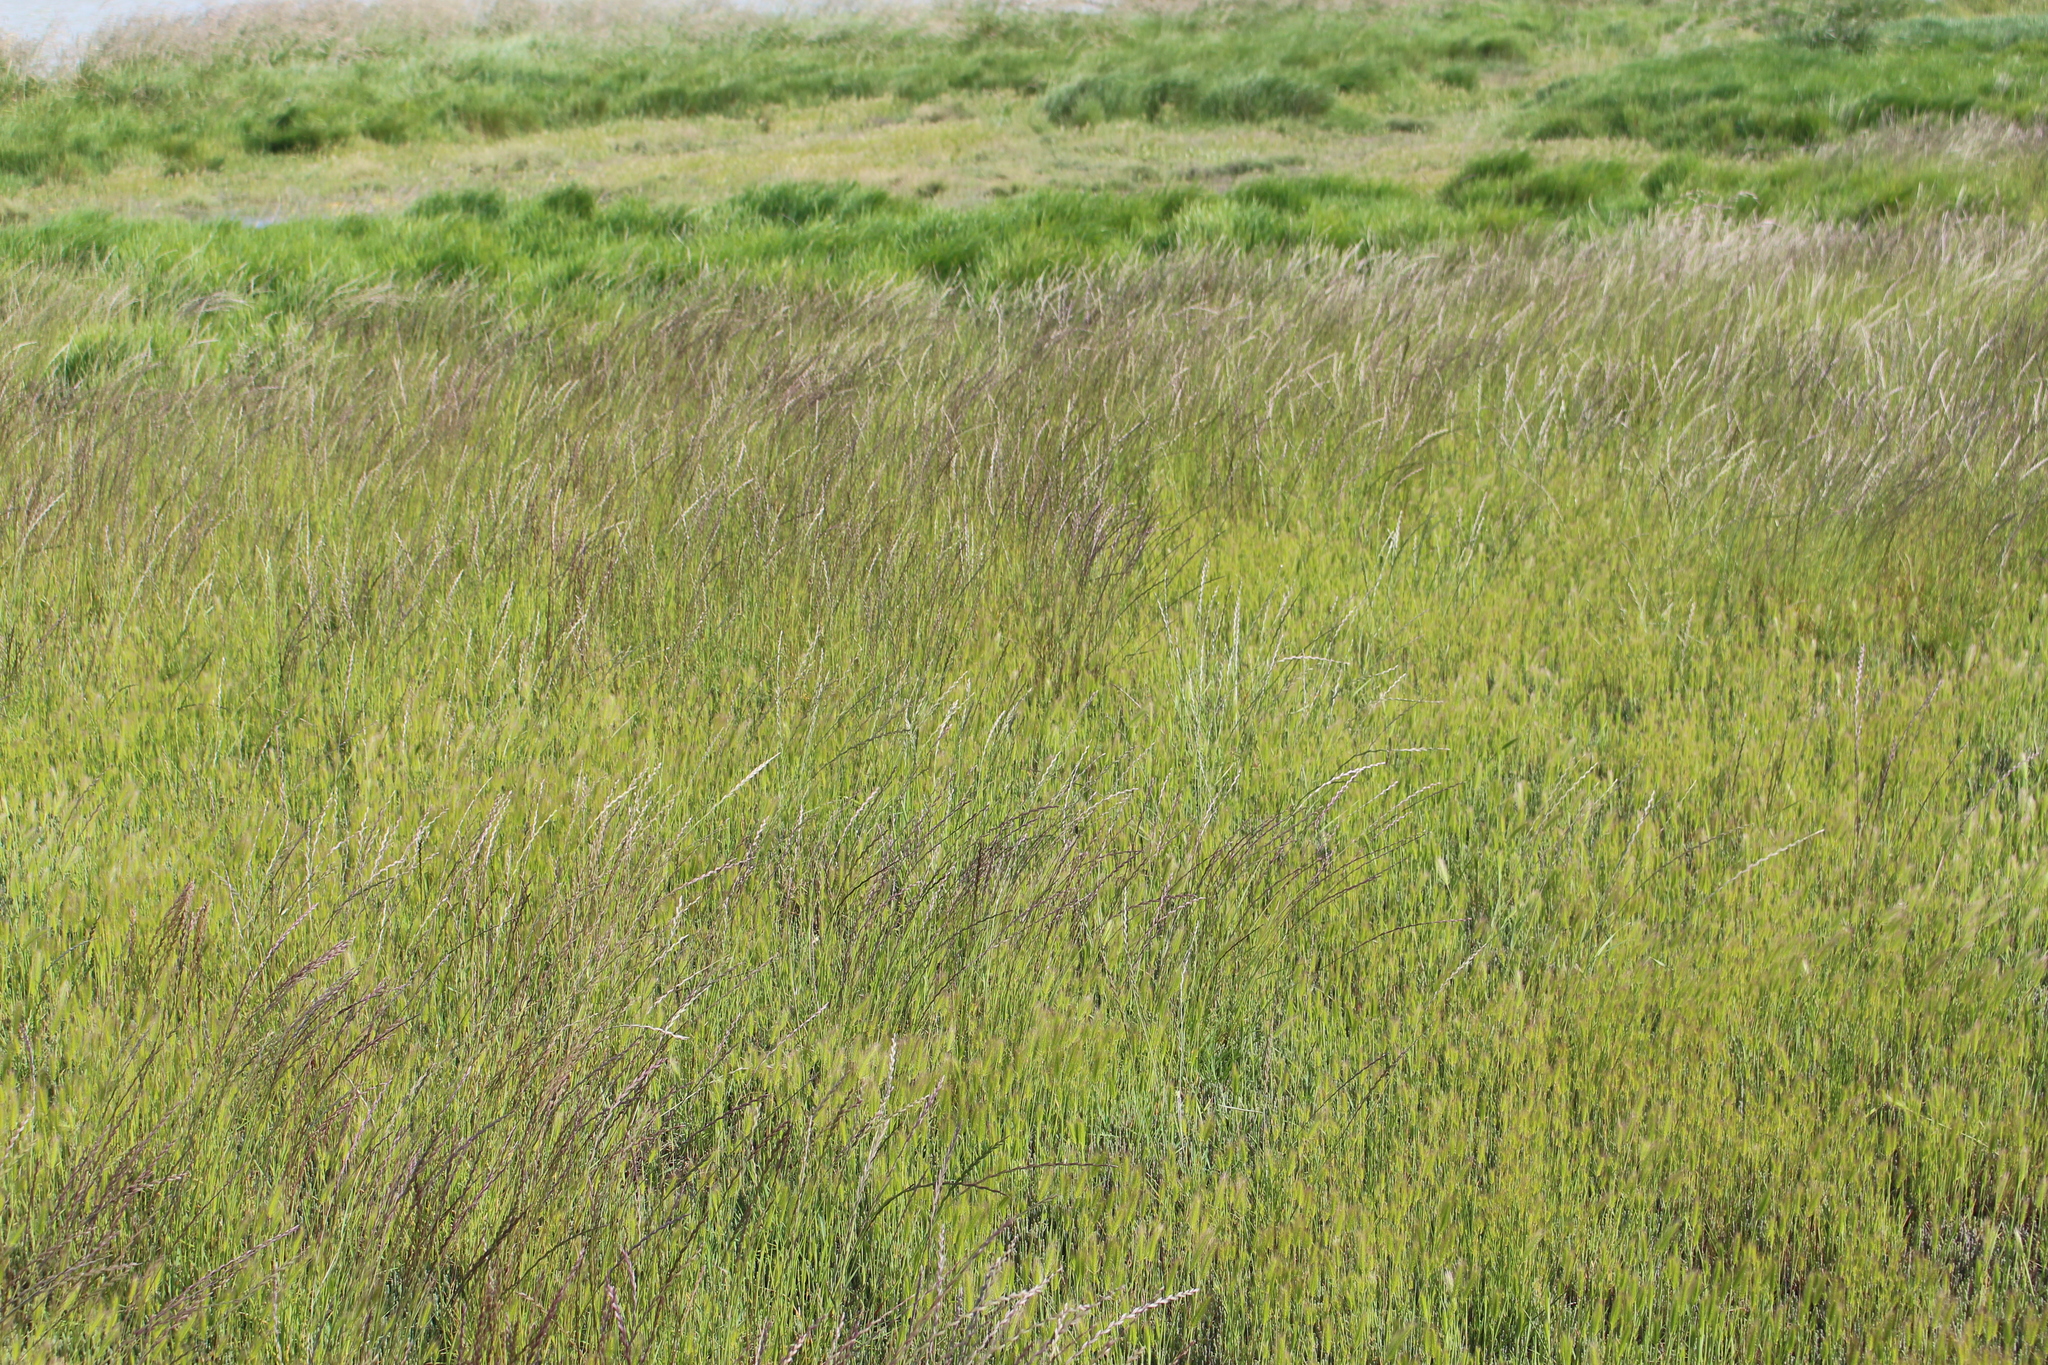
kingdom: Plantae
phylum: Tracheophyta
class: Liliopsida
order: Poales
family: Poaceae
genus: Lolium
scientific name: Lolium perenne
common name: Perennial ryegrass
